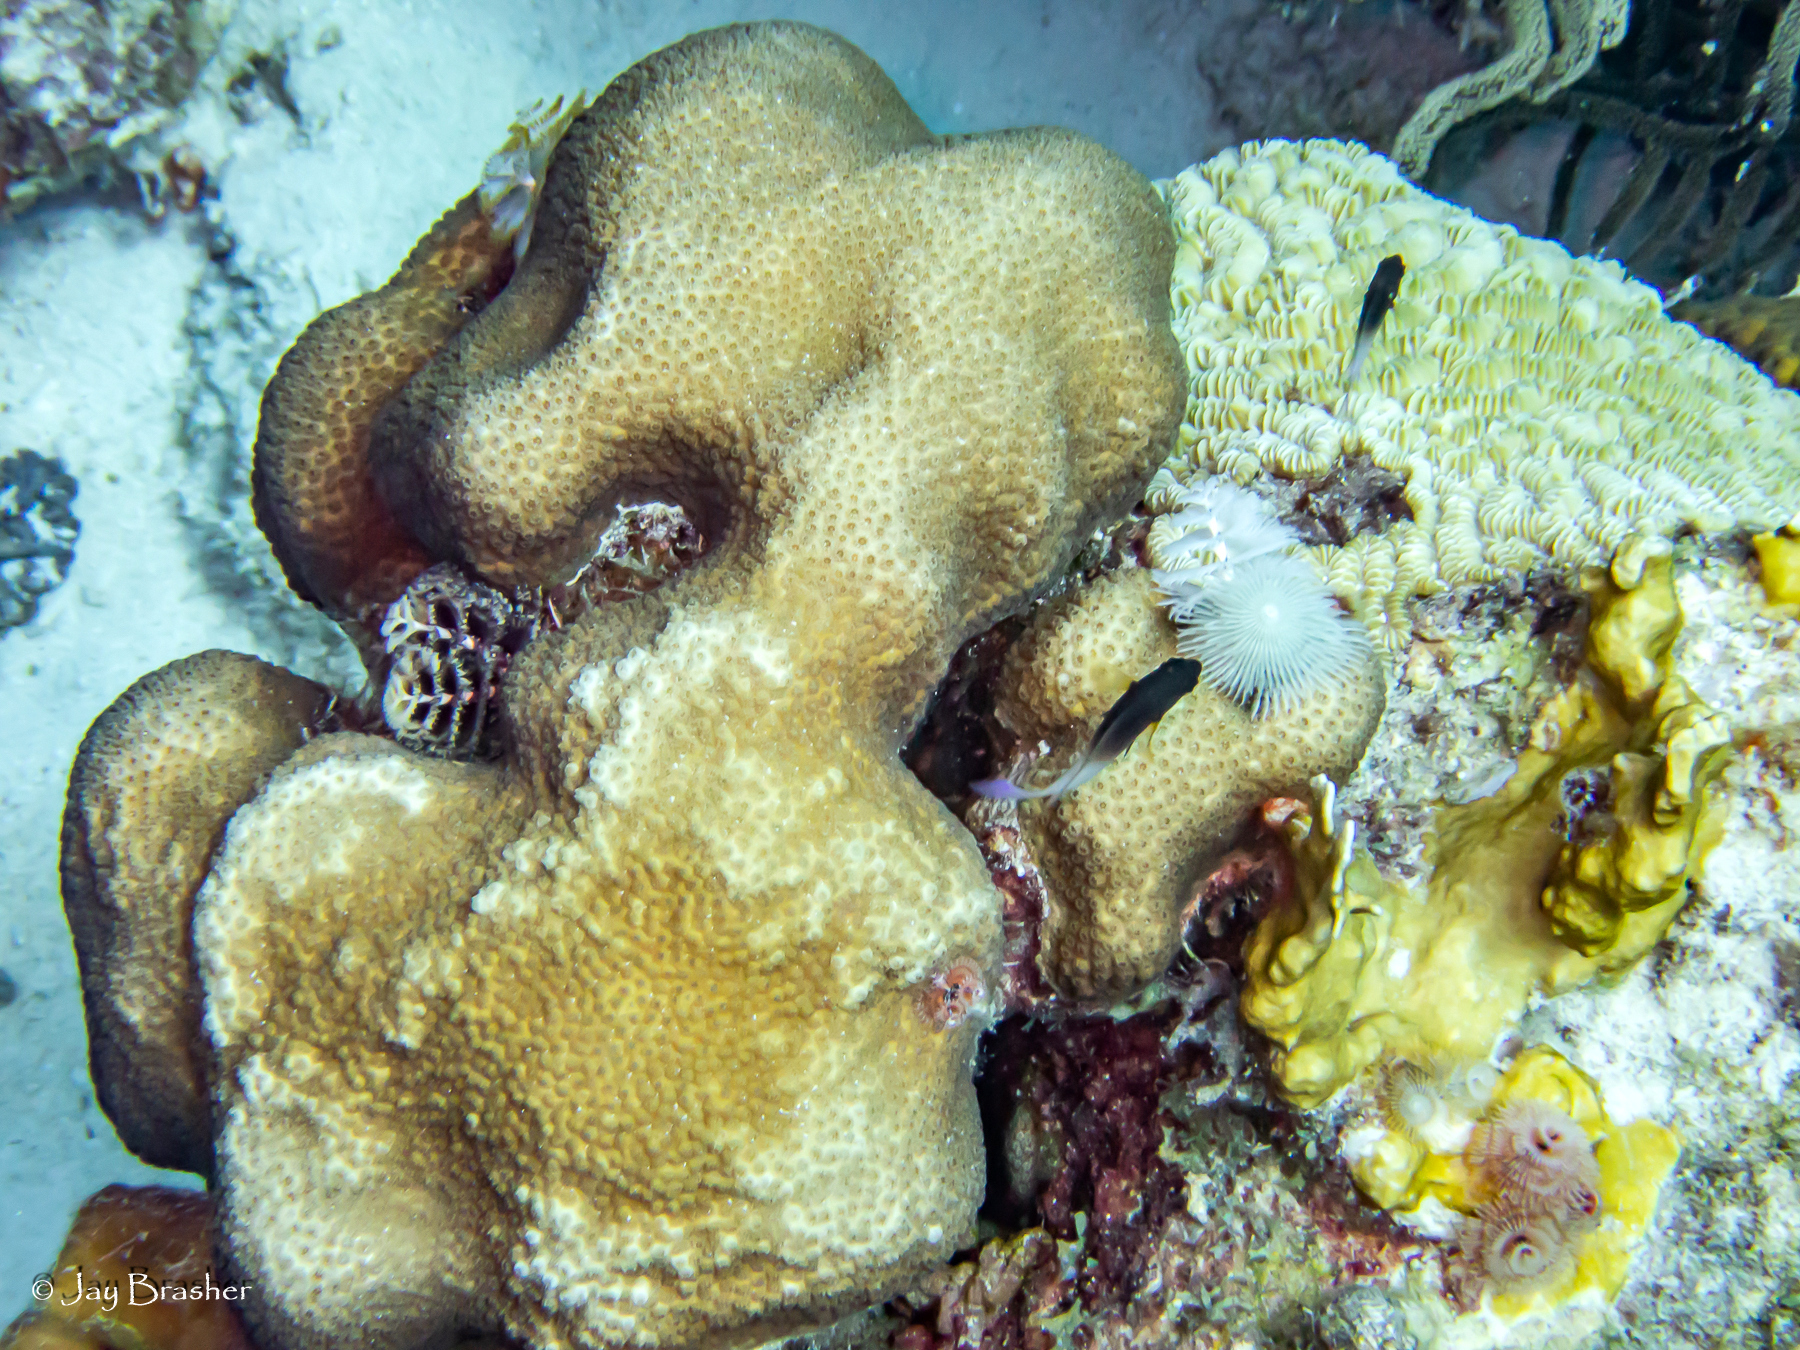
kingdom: Animalia
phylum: Cnidaria
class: Anthozoa
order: Scleractinia
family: Meandrinidae
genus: Meandrina
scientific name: Meandrina meandrites
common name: Maze coral
